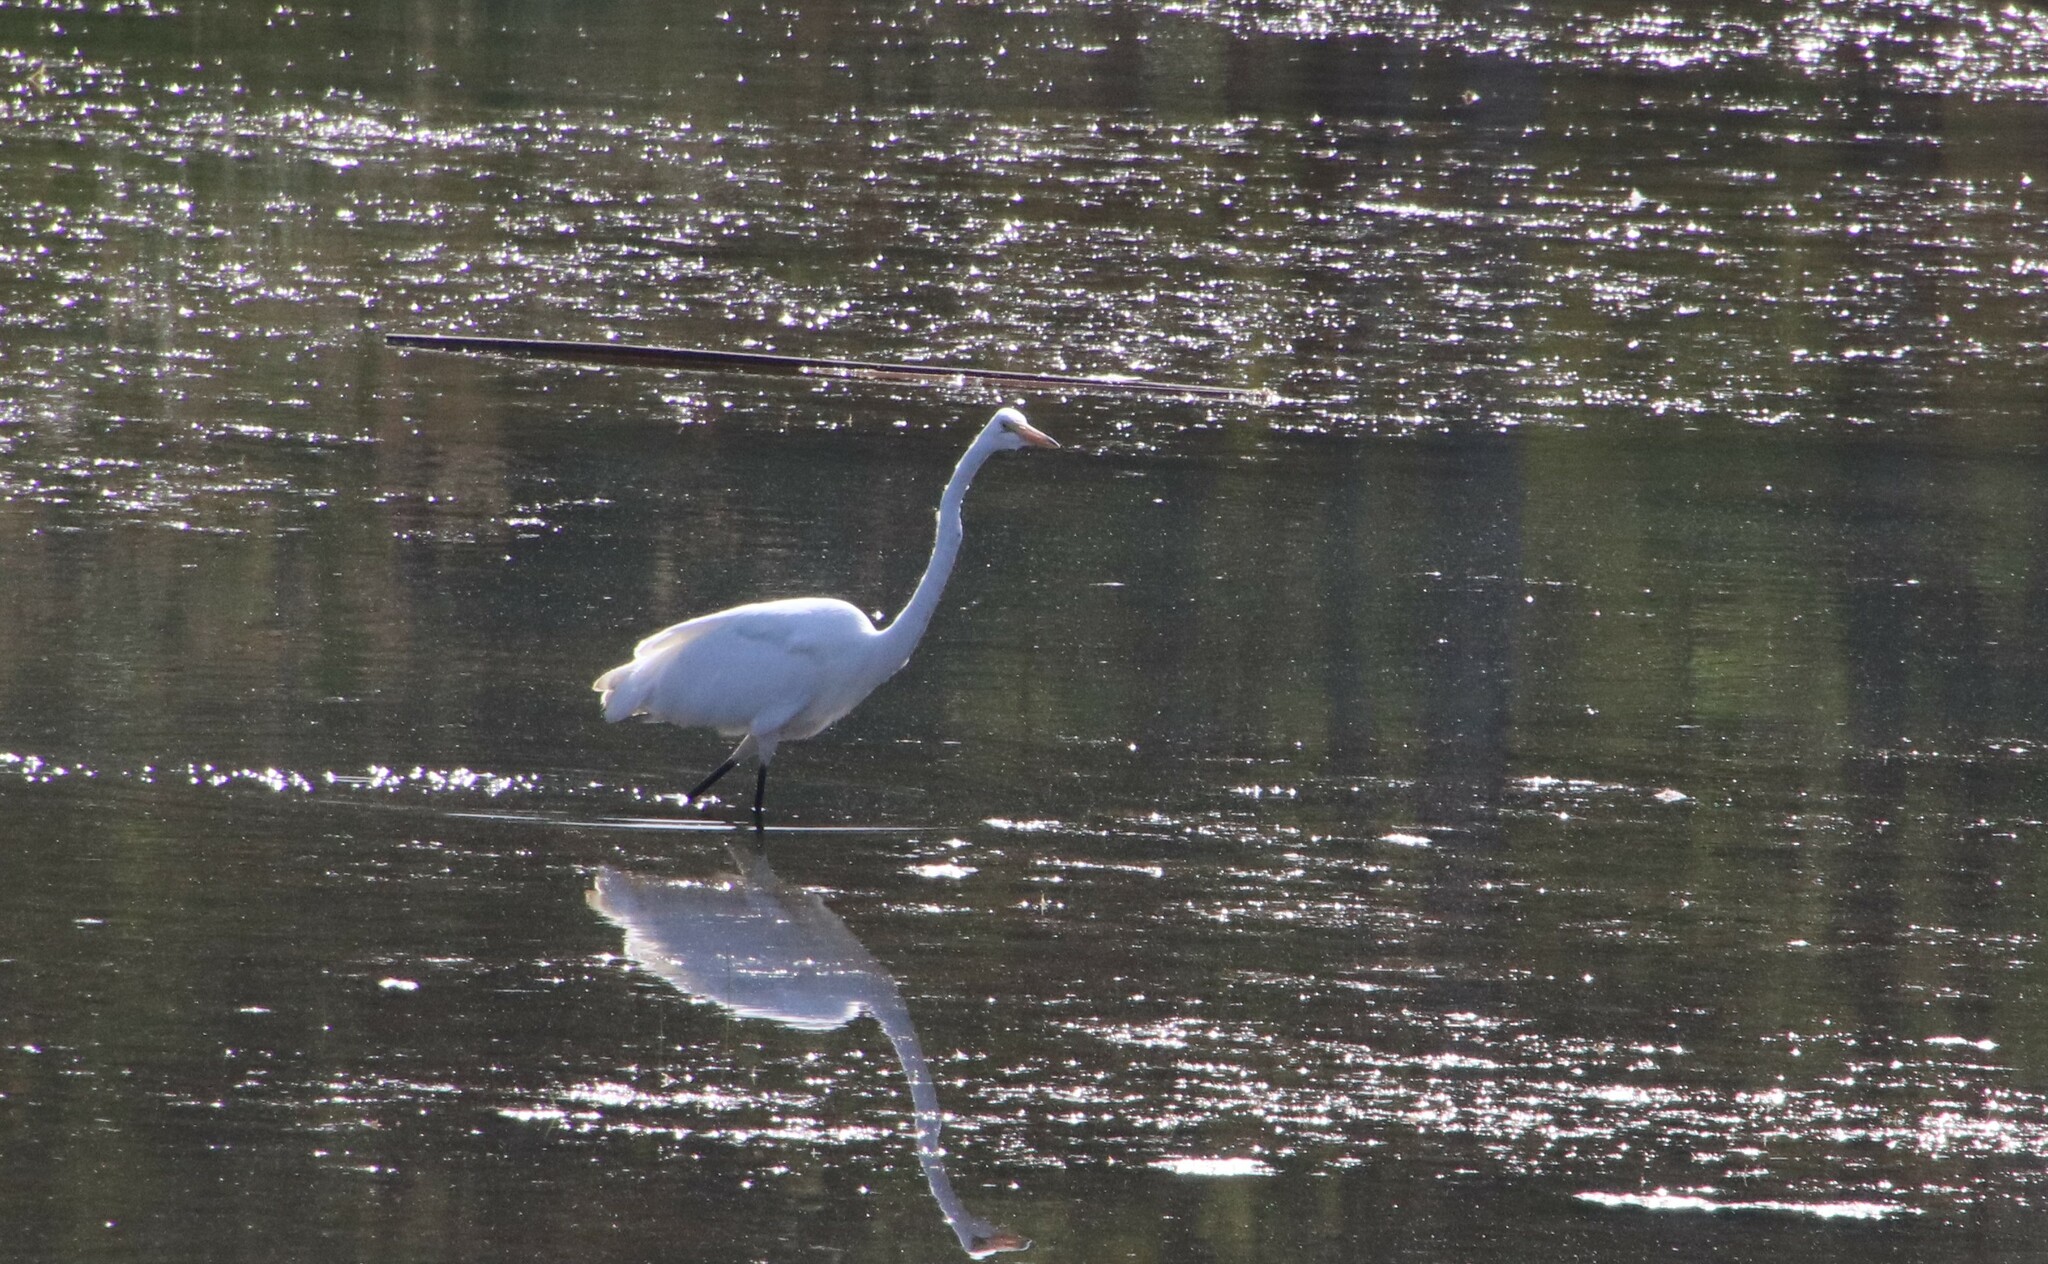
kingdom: Animalia
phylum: Chordata
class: Aves
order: Pelecaniformes
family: Ardeidae
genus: Ardea
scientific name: Ardea alba
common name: Great egret
